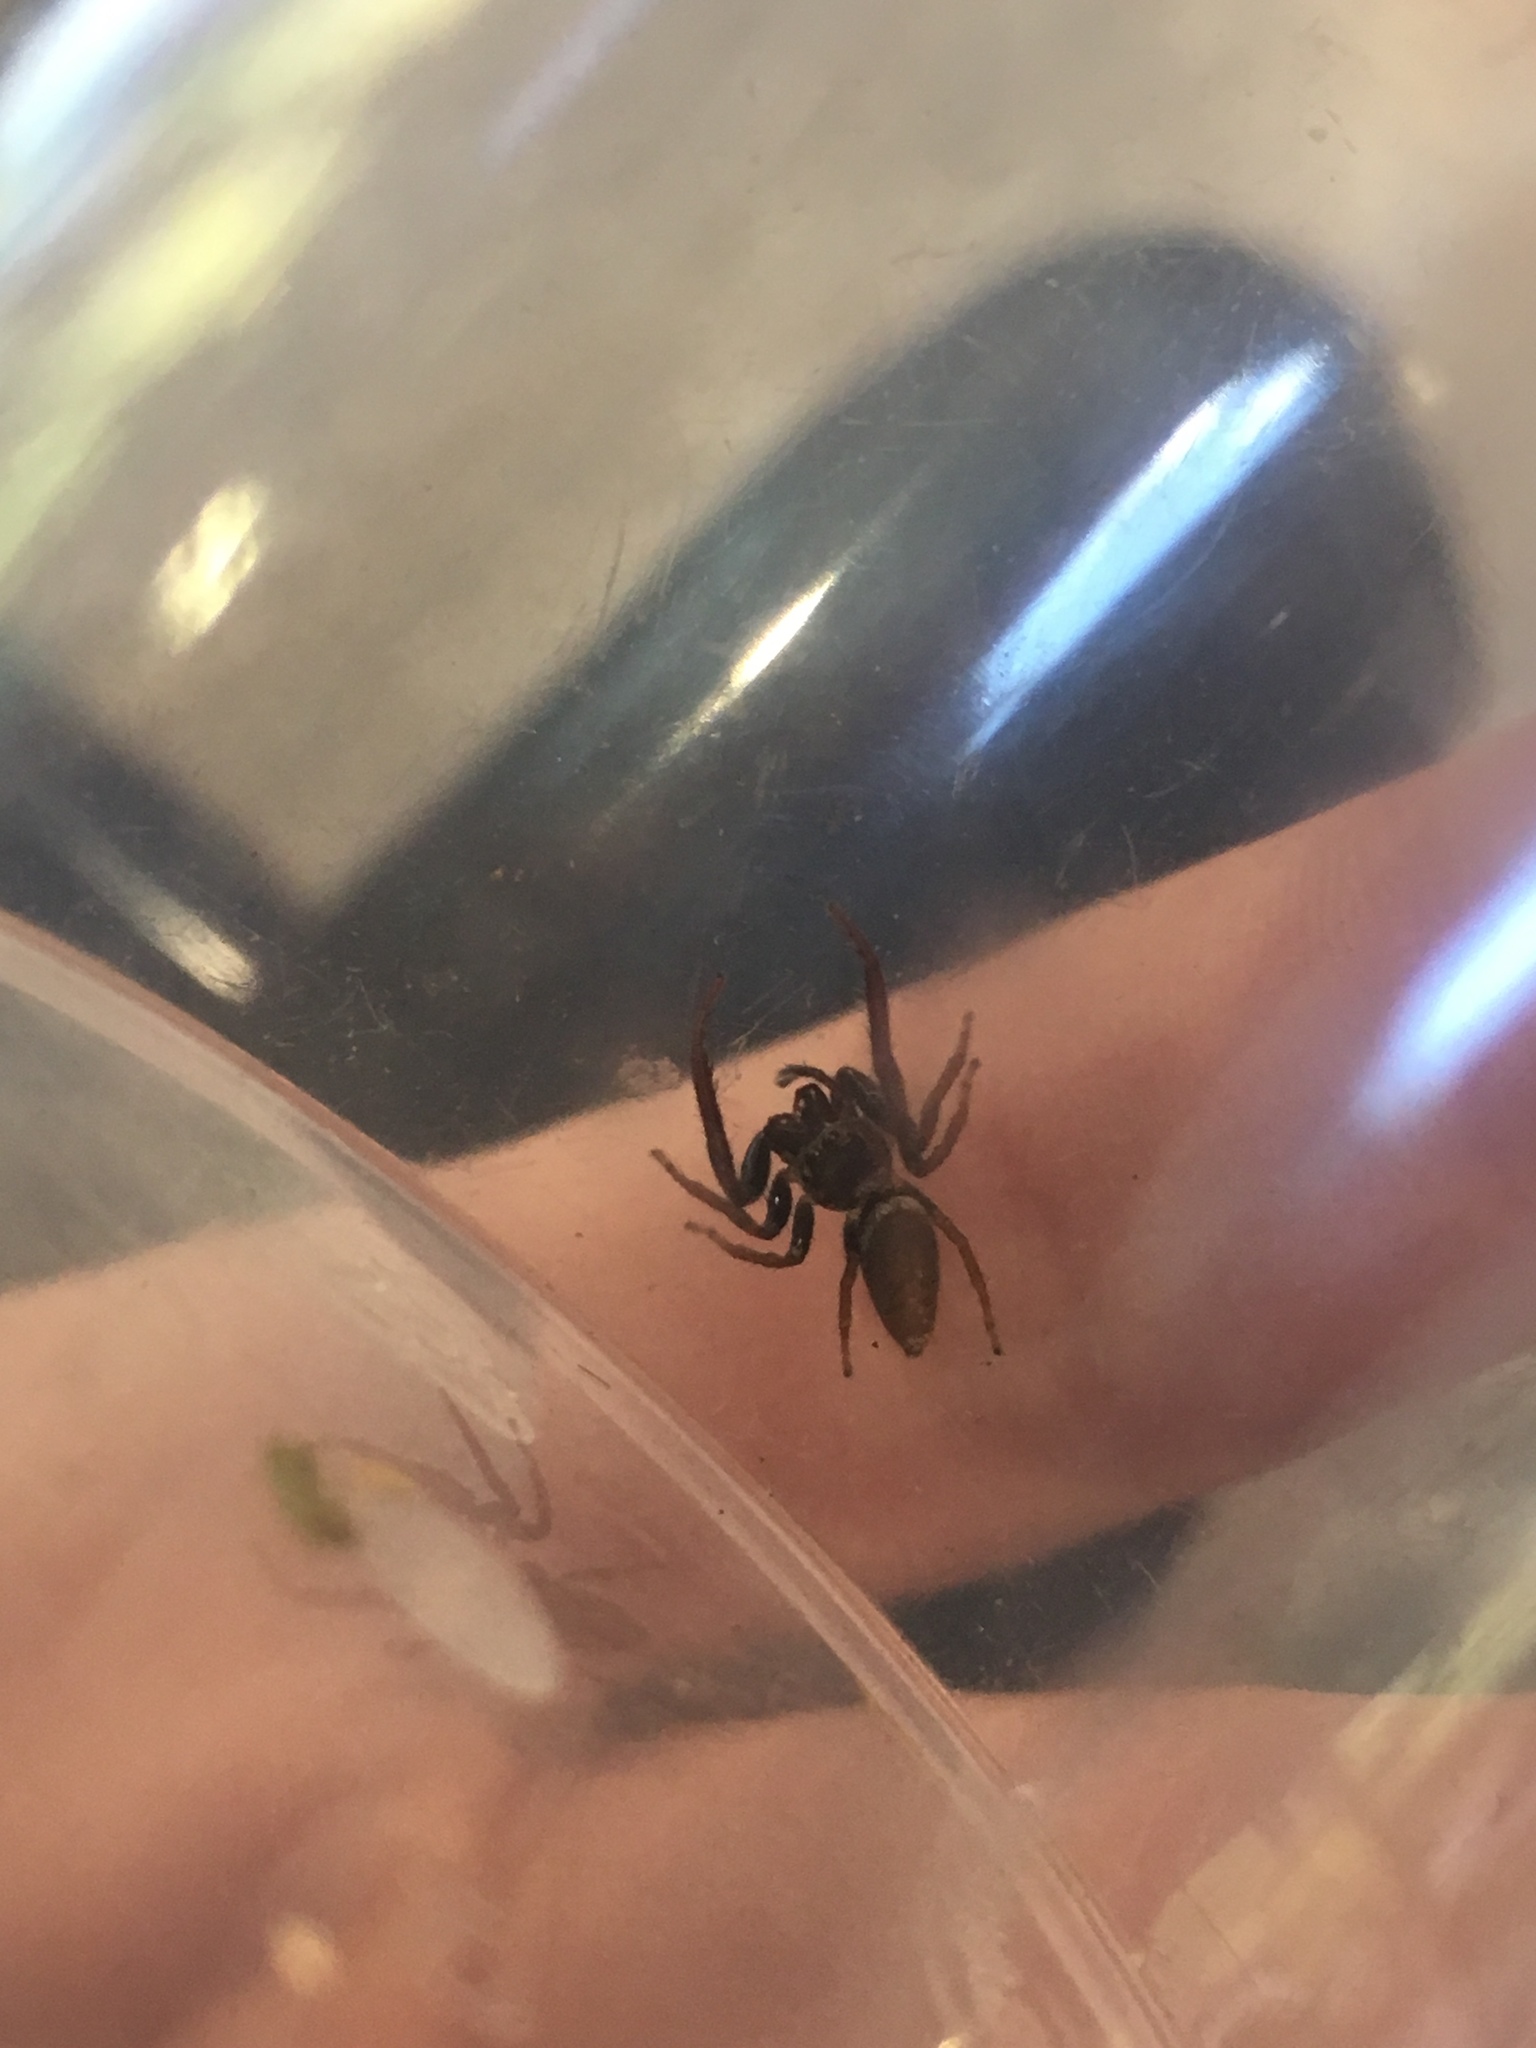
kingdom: Animalia
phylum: Arthropoda
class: Arachnida
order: Araneae
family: Salticidae
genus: Opisthoncus
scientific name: Opisthoncus polyphemus
